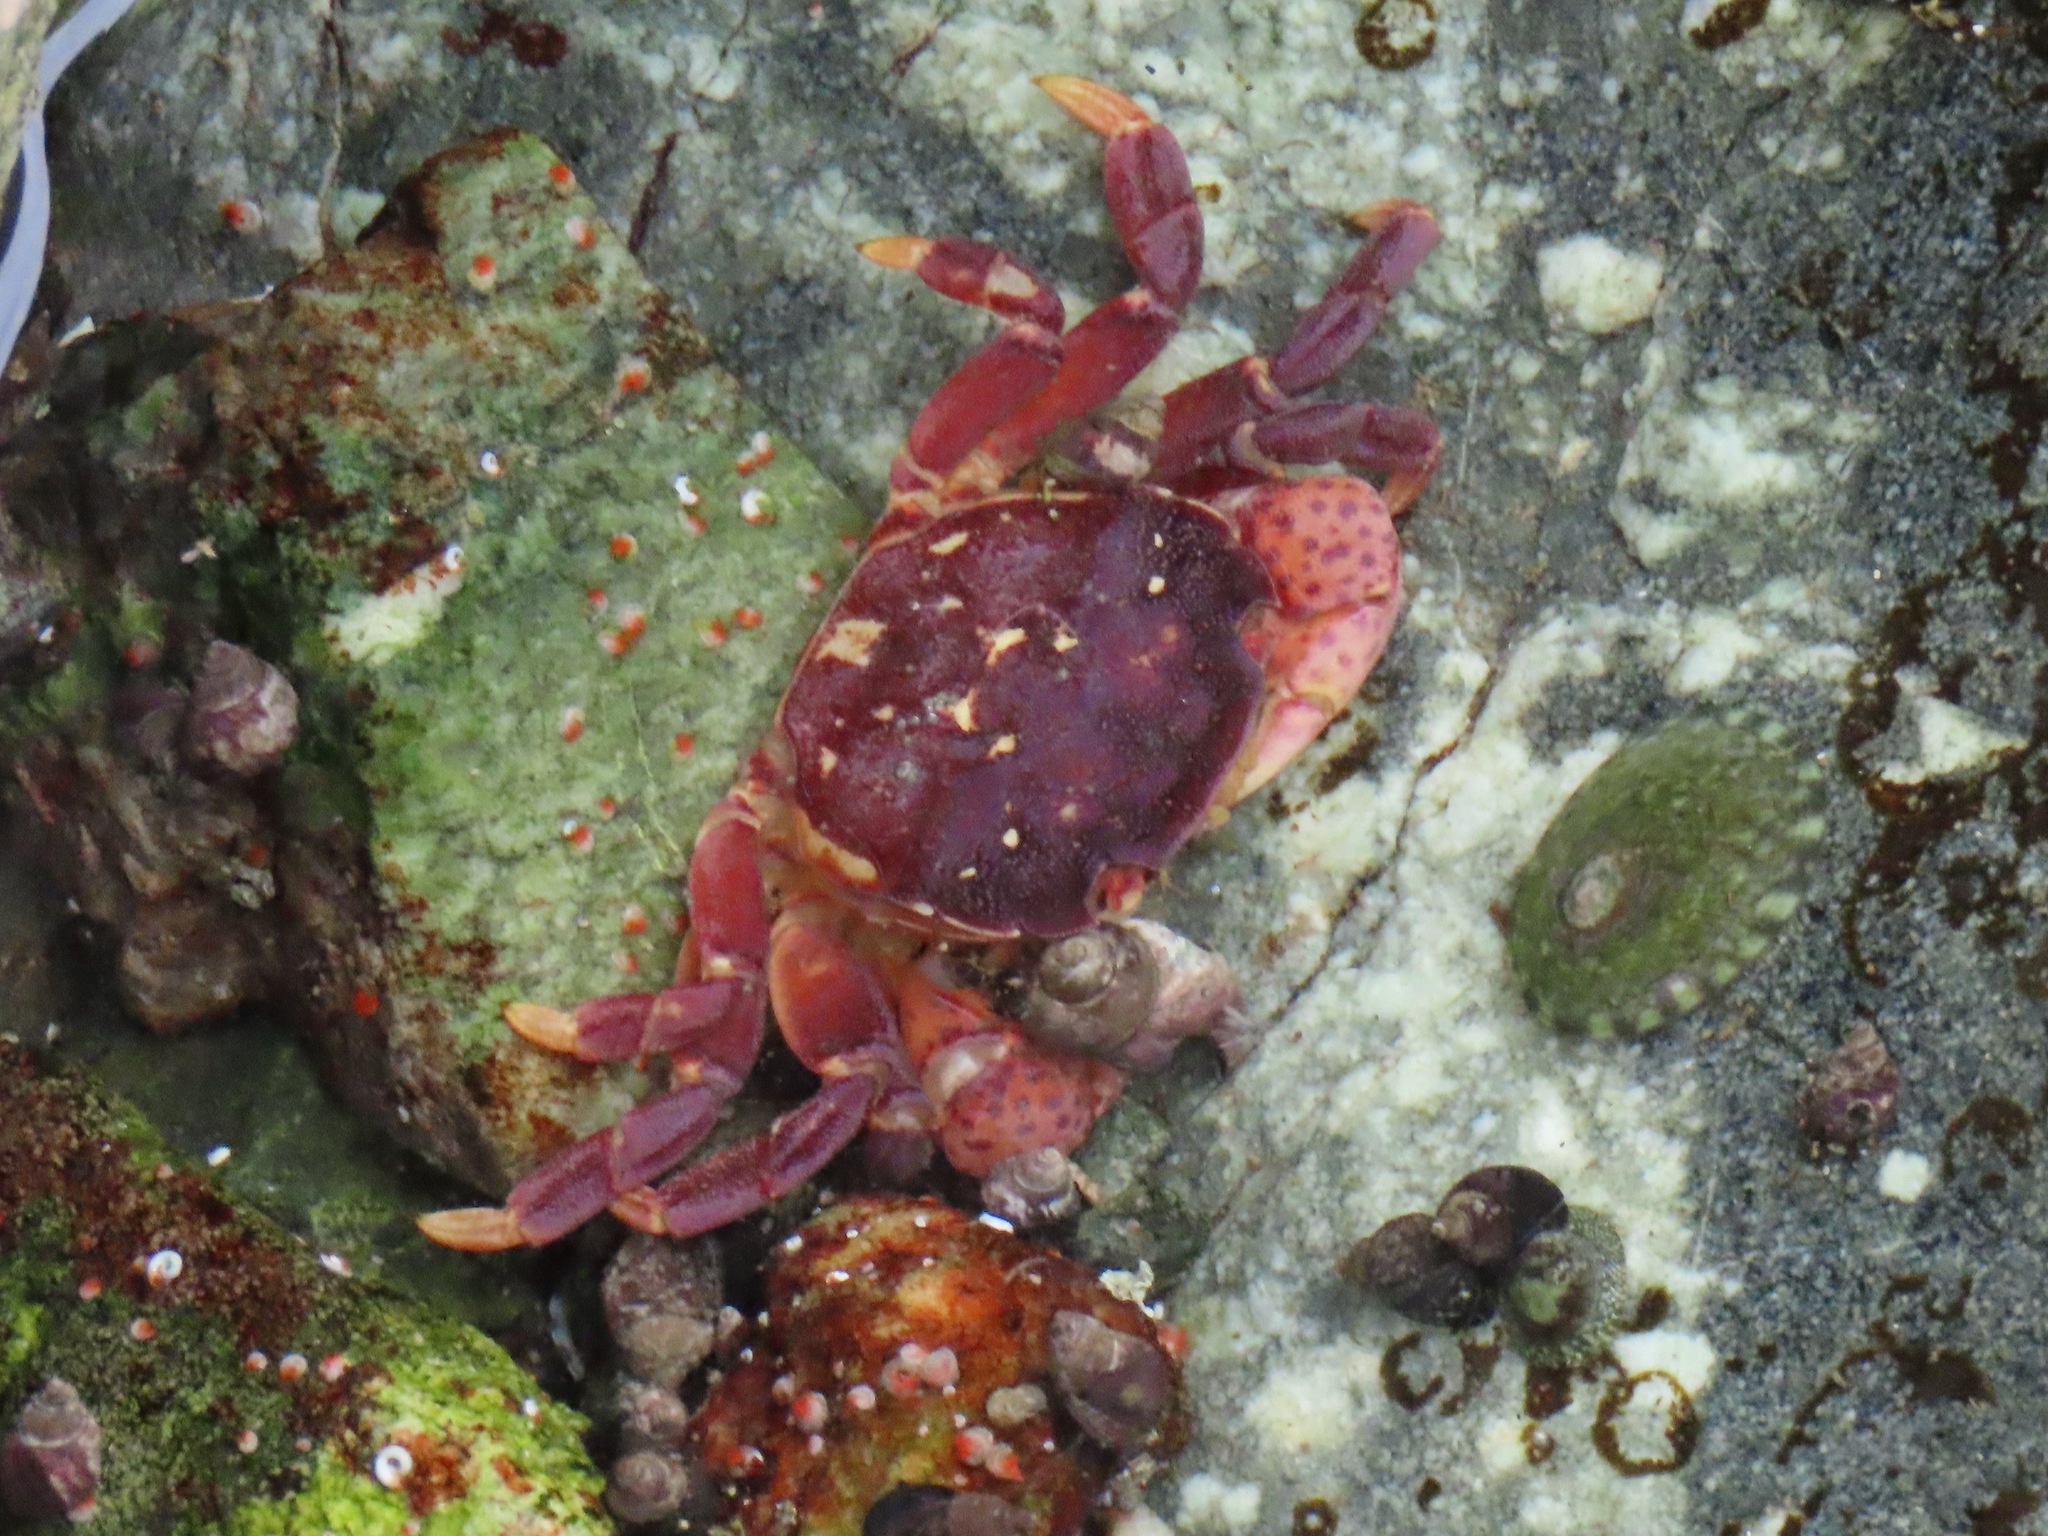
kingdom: Animalia
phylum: Arthropoda
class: Malacostraca
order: Decapoda
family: Varunidae
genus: Hemigrapsus
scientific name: Hemigrapsus nudus
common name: Purple shore crab
